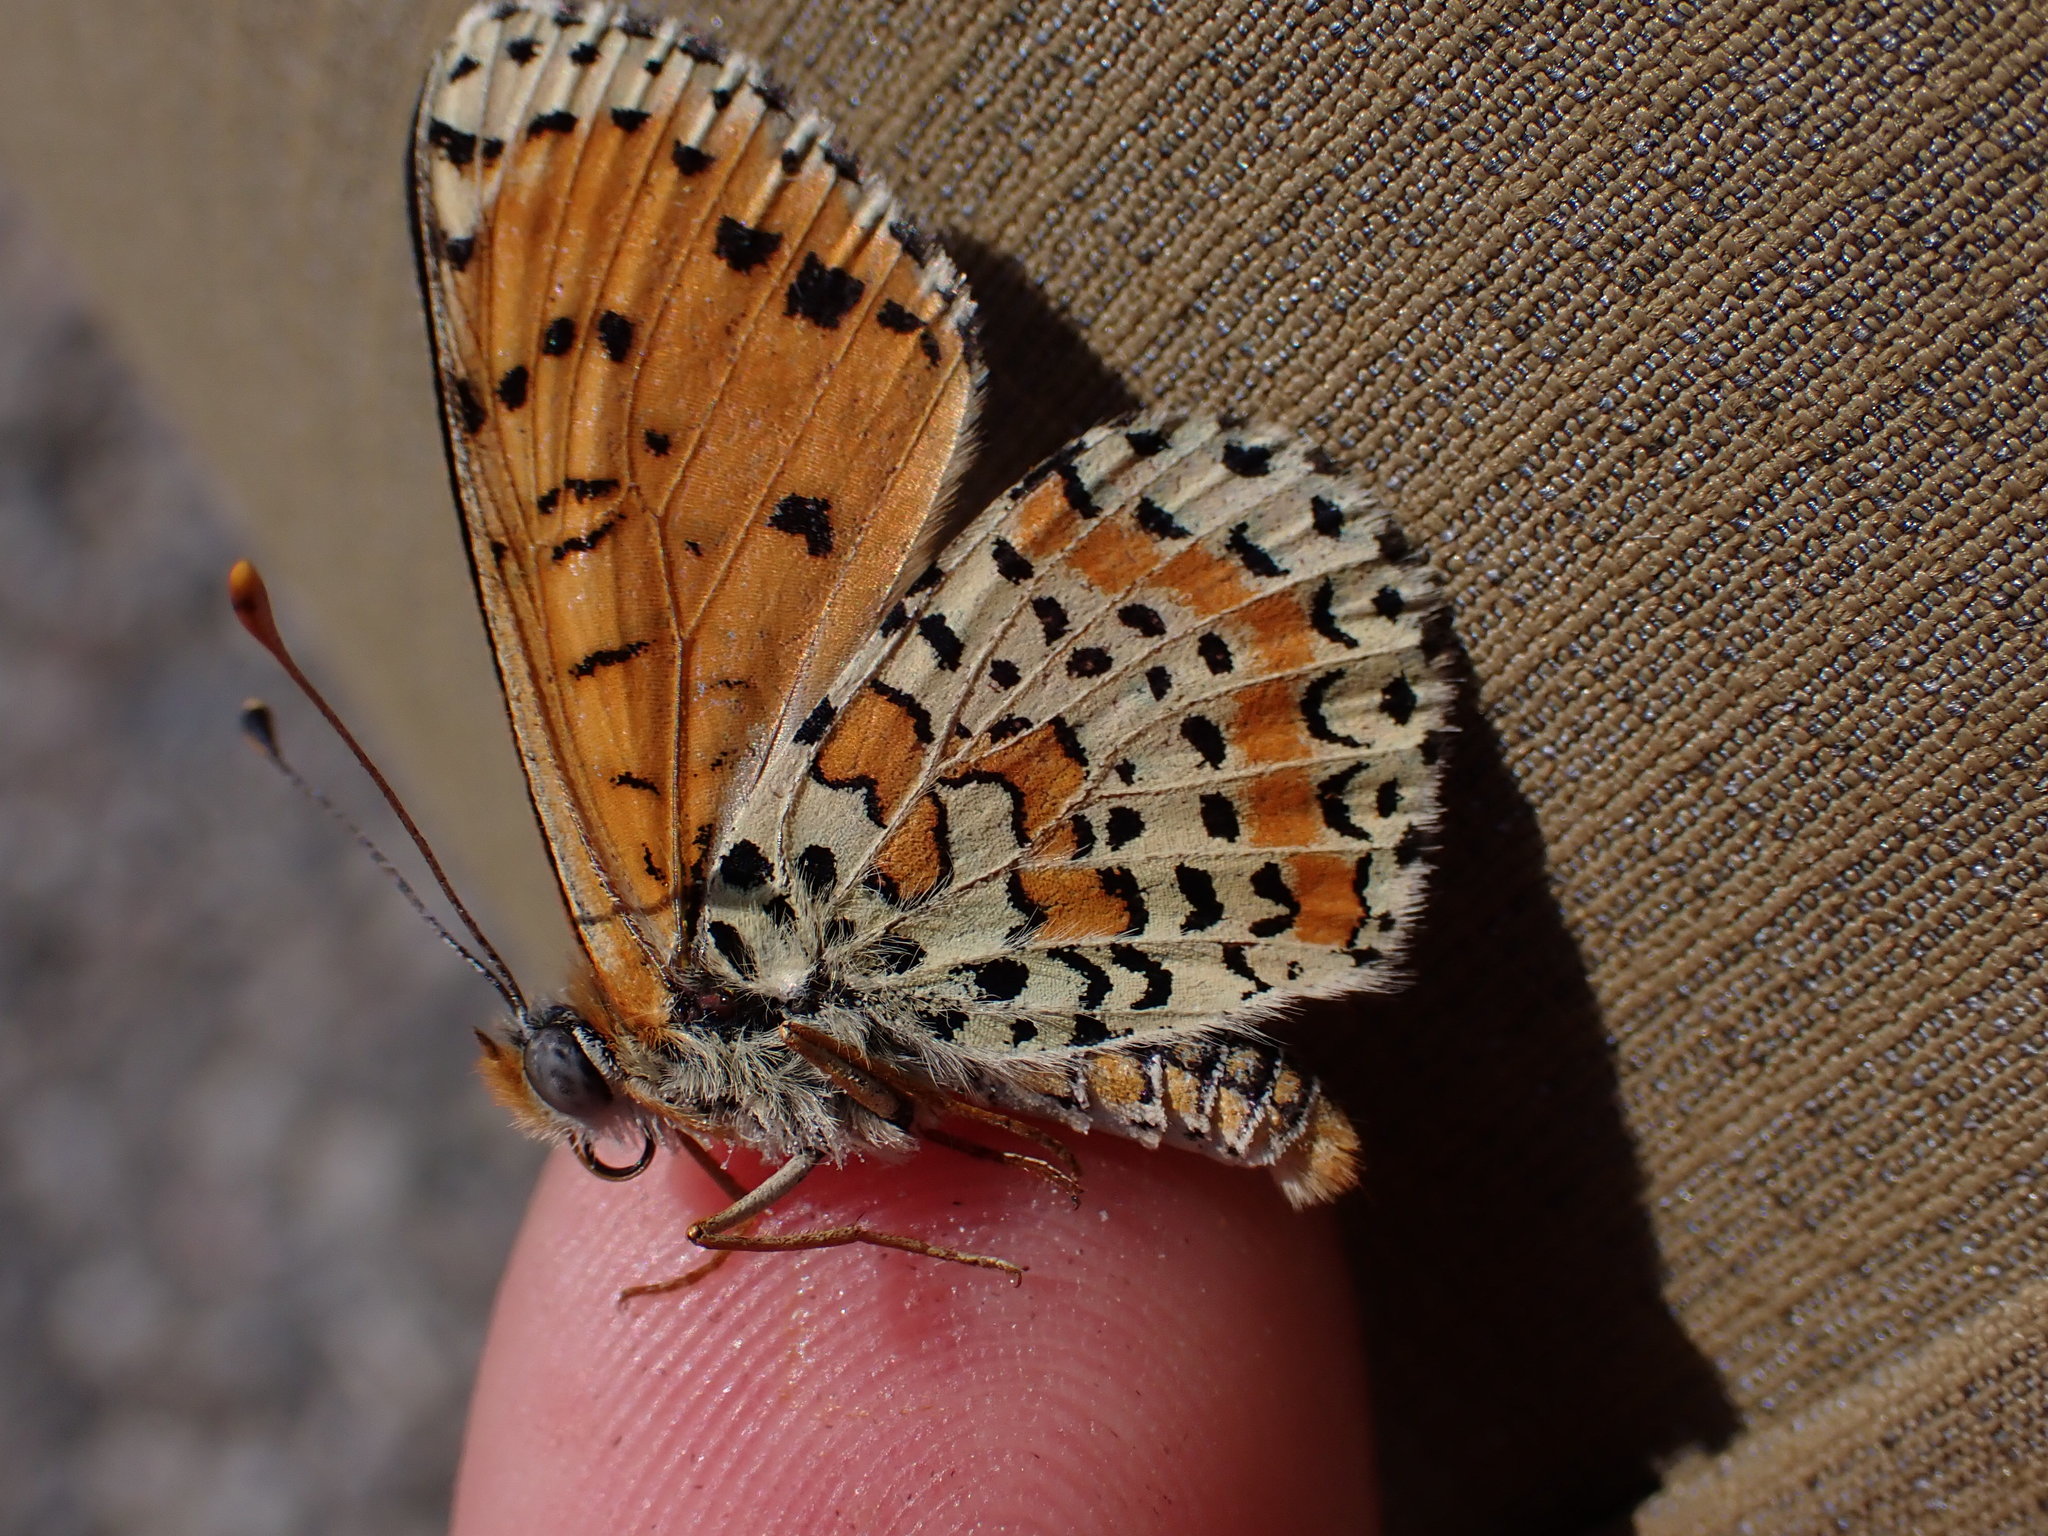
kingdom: Animalia
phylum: Arthropoda
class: Insecta
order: Lepidoptera
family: Nymphalidae
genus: Melitaea
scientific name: Melitaea didyma
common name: Spotted fritillary
